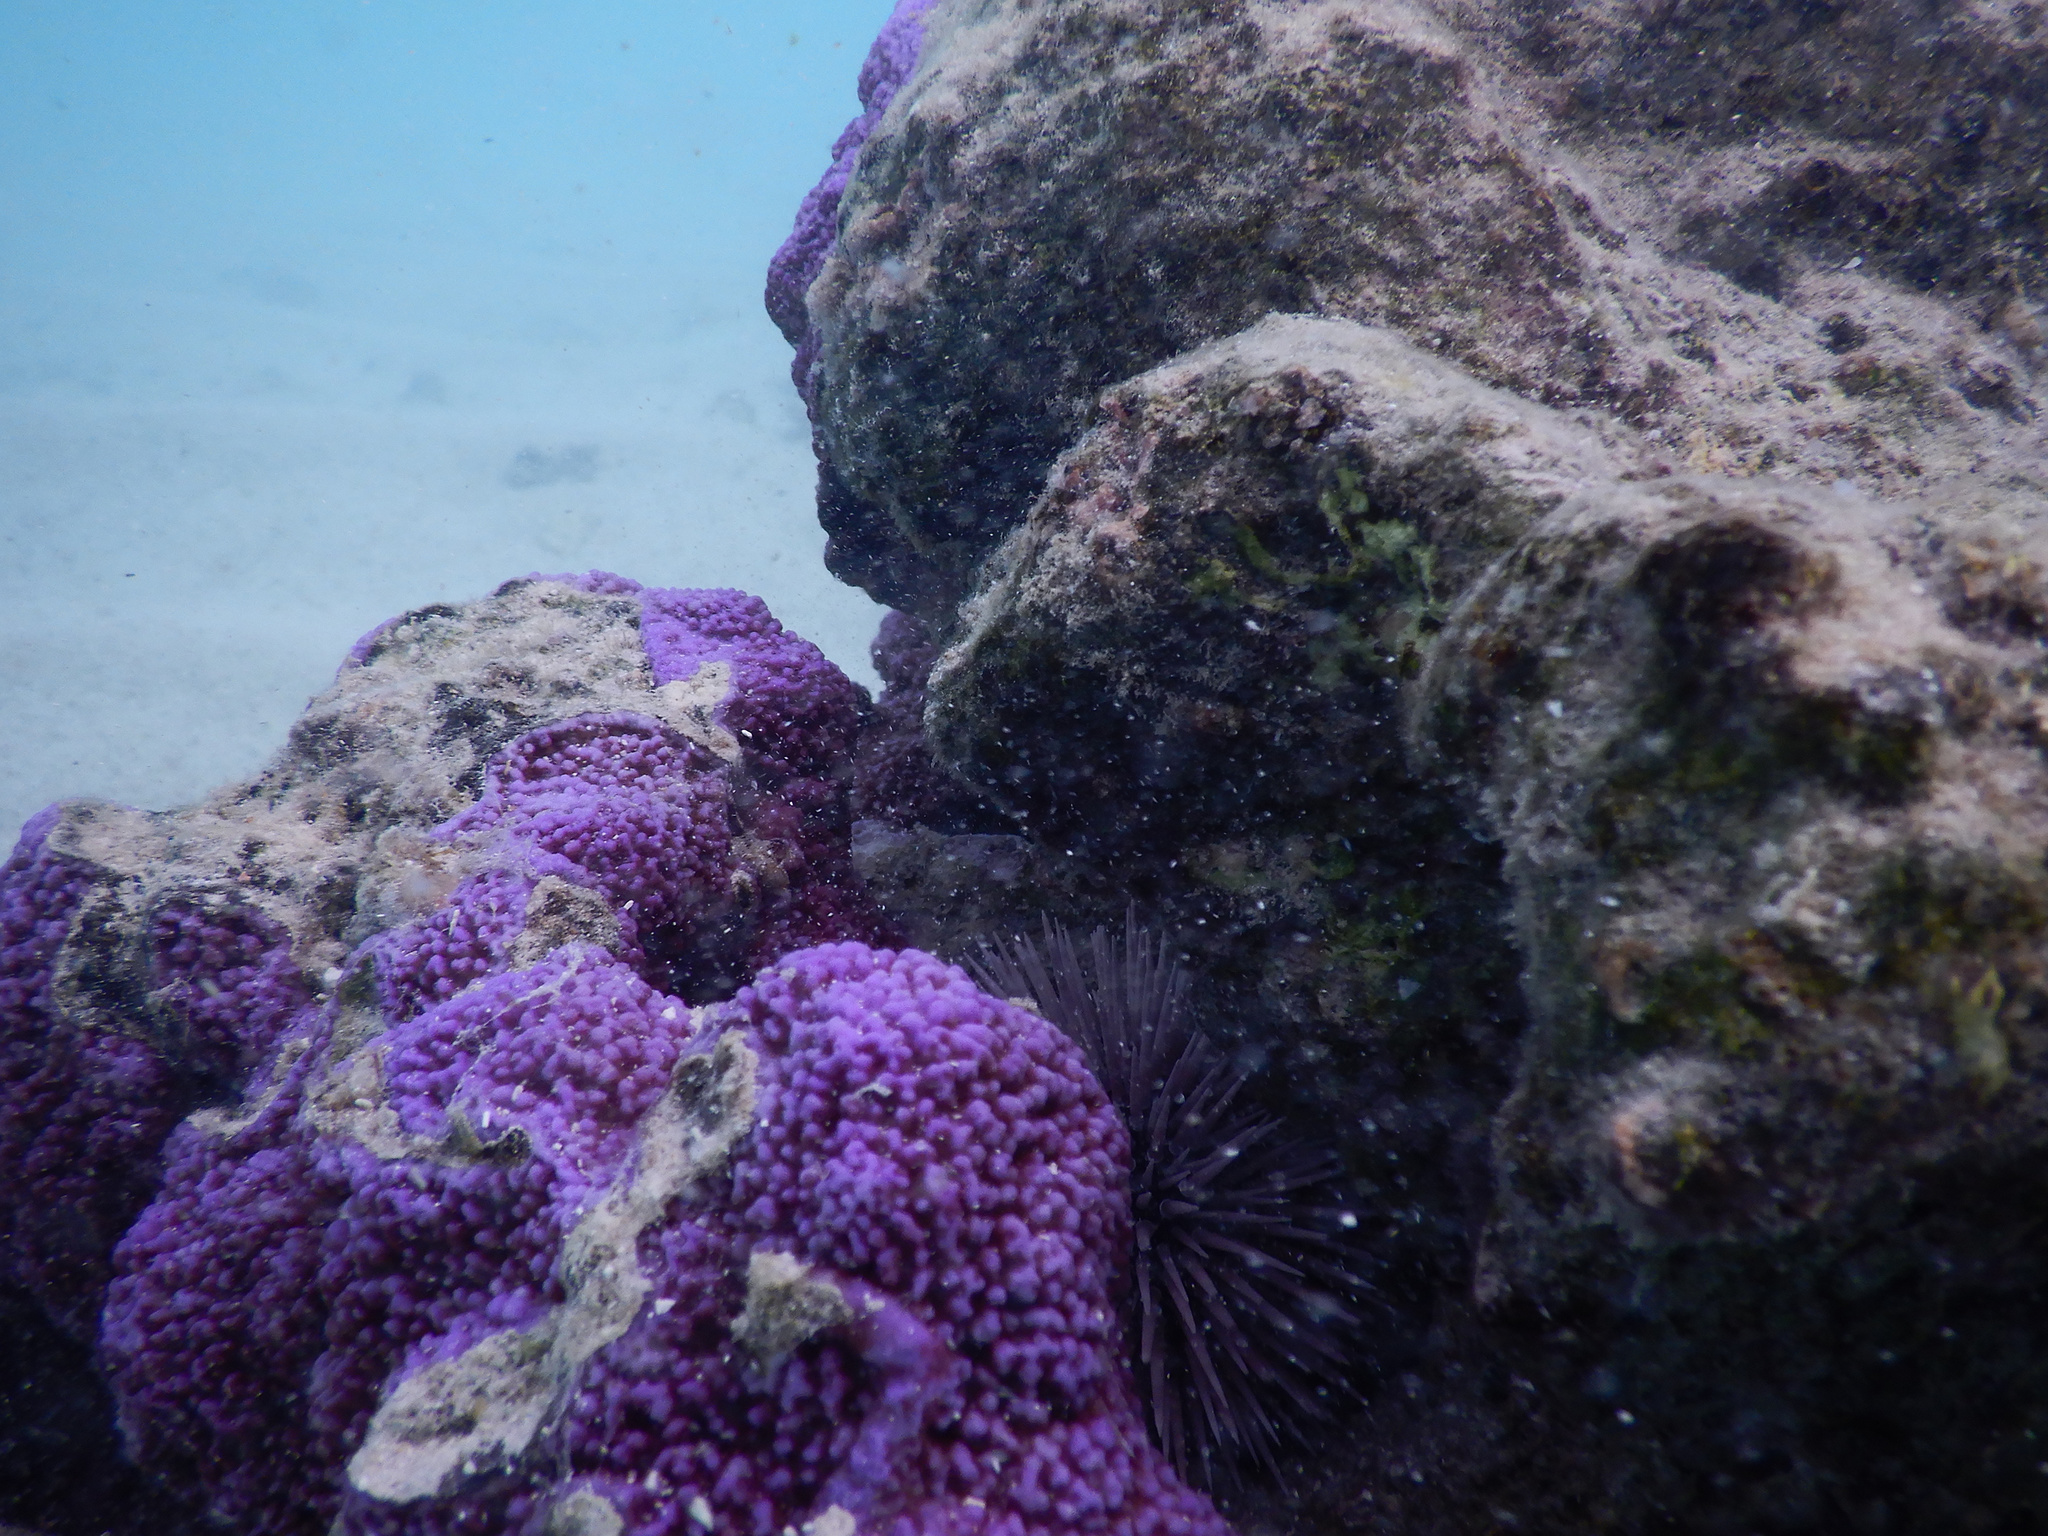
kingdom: Animalia
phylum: Echinodermata
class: Echinoidea
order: Camarodonta
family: Echinometridae
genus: Echinometra
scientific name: Echinometra mathaei
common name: Rock-boring urchin
